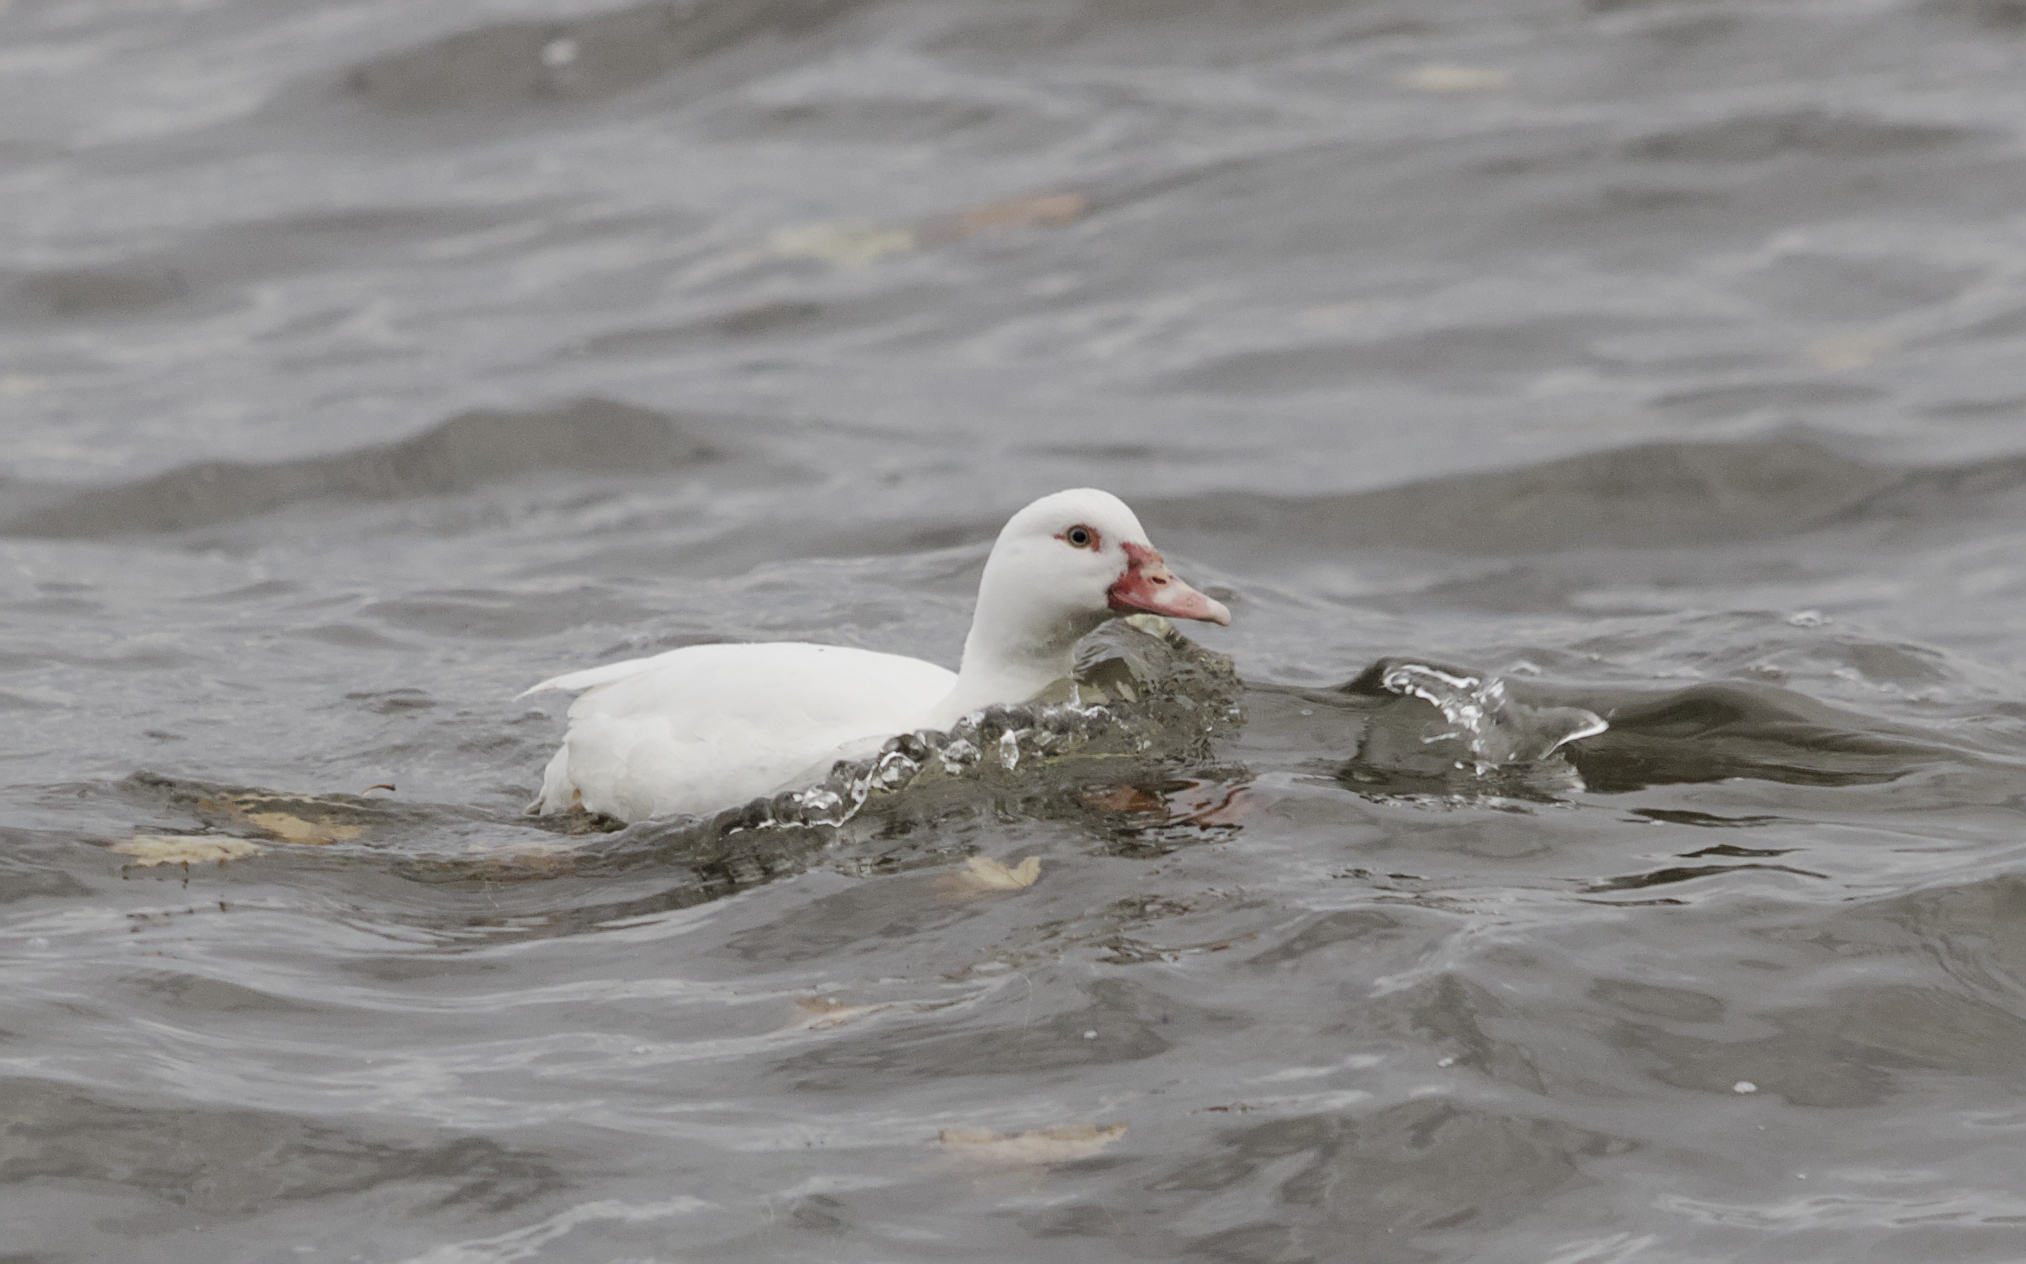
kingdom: Animalia
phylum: Chordata
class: Aves
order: Anseriformes
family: Anatidae
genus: Cairina
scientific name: Cairina moschata
